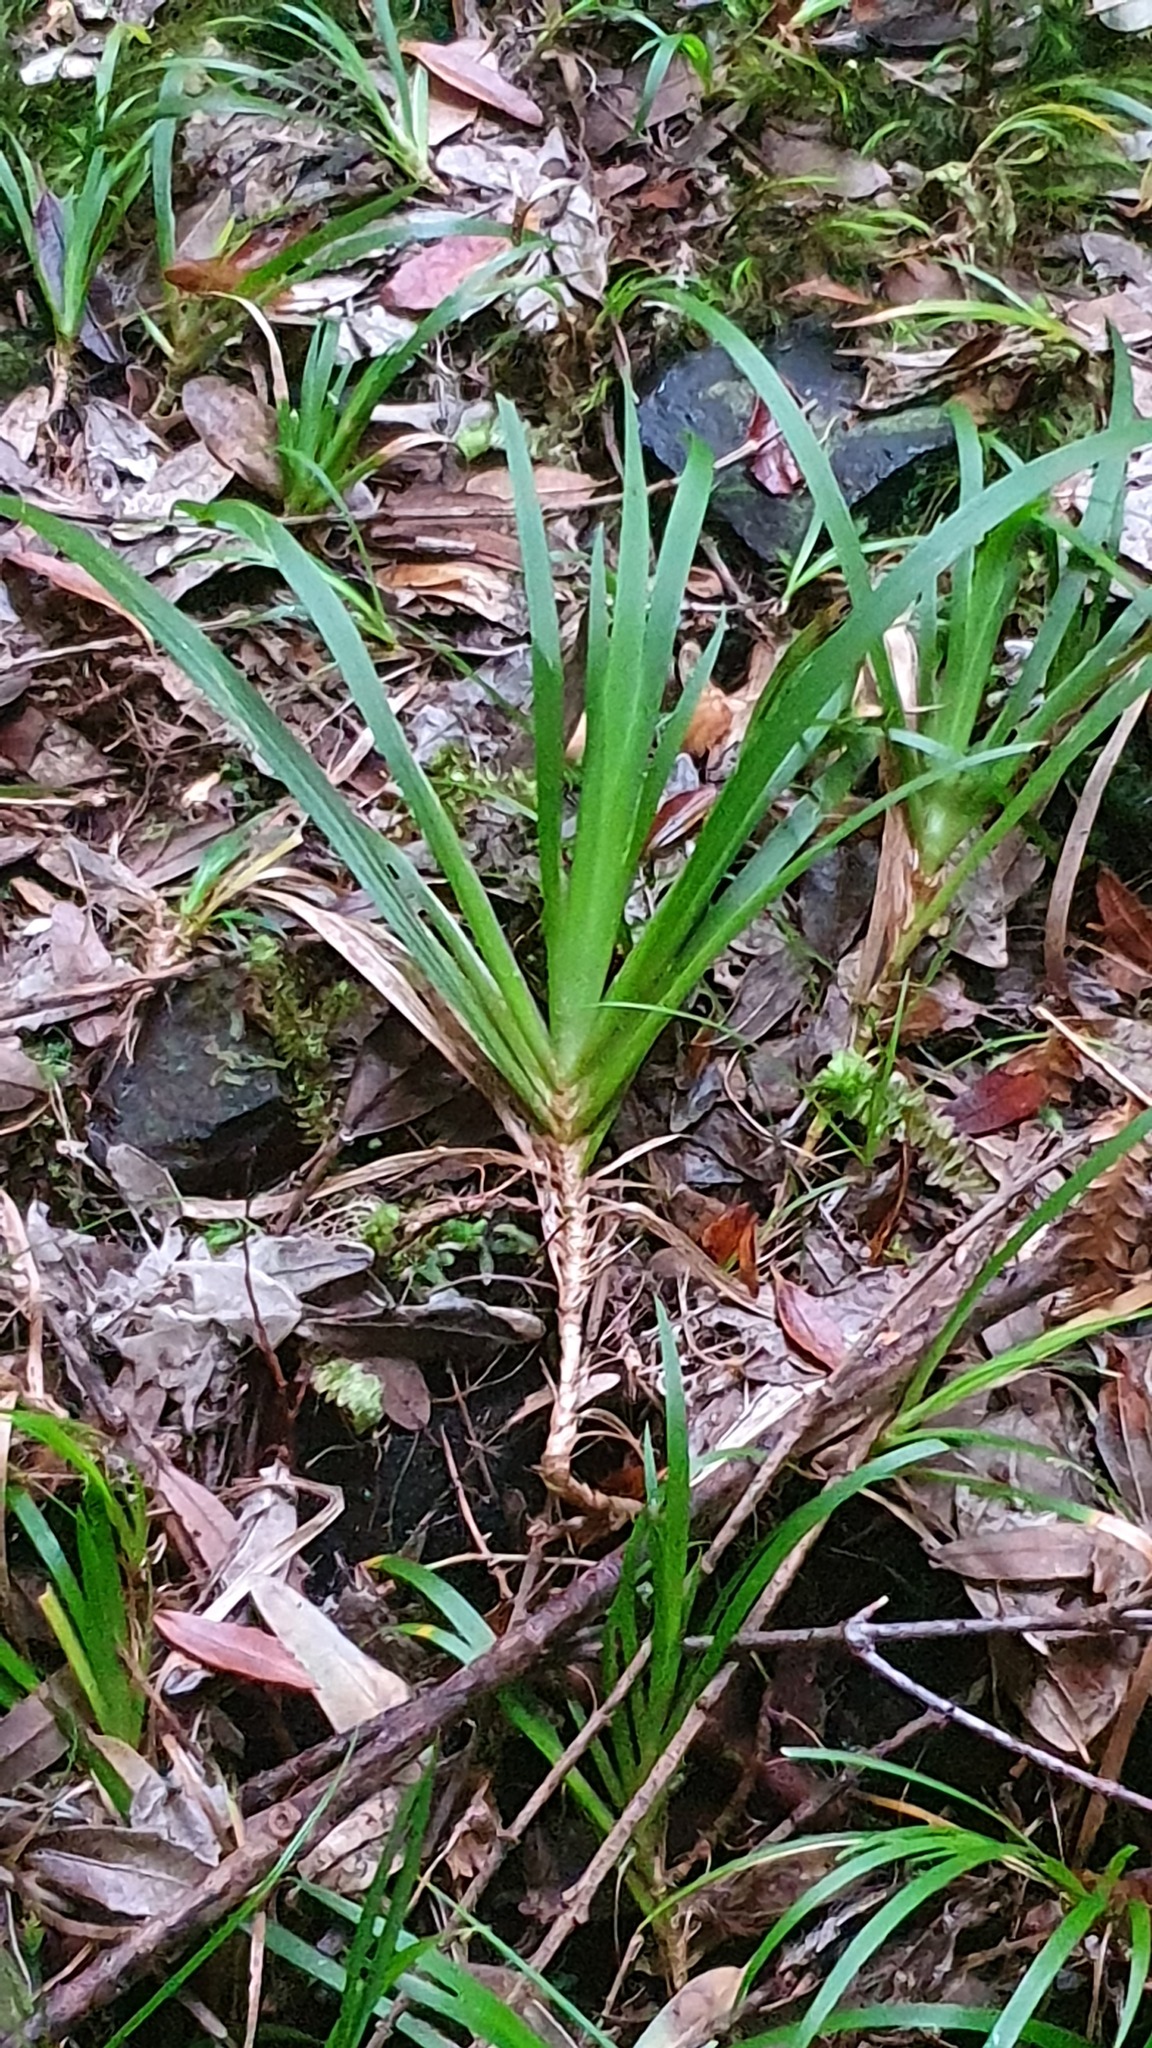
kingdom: Plantae
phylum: Tracheophyta
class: Liliopsida
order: Asparagales
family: Iridaceae
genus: Libertia
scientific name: Libertia pulchella
